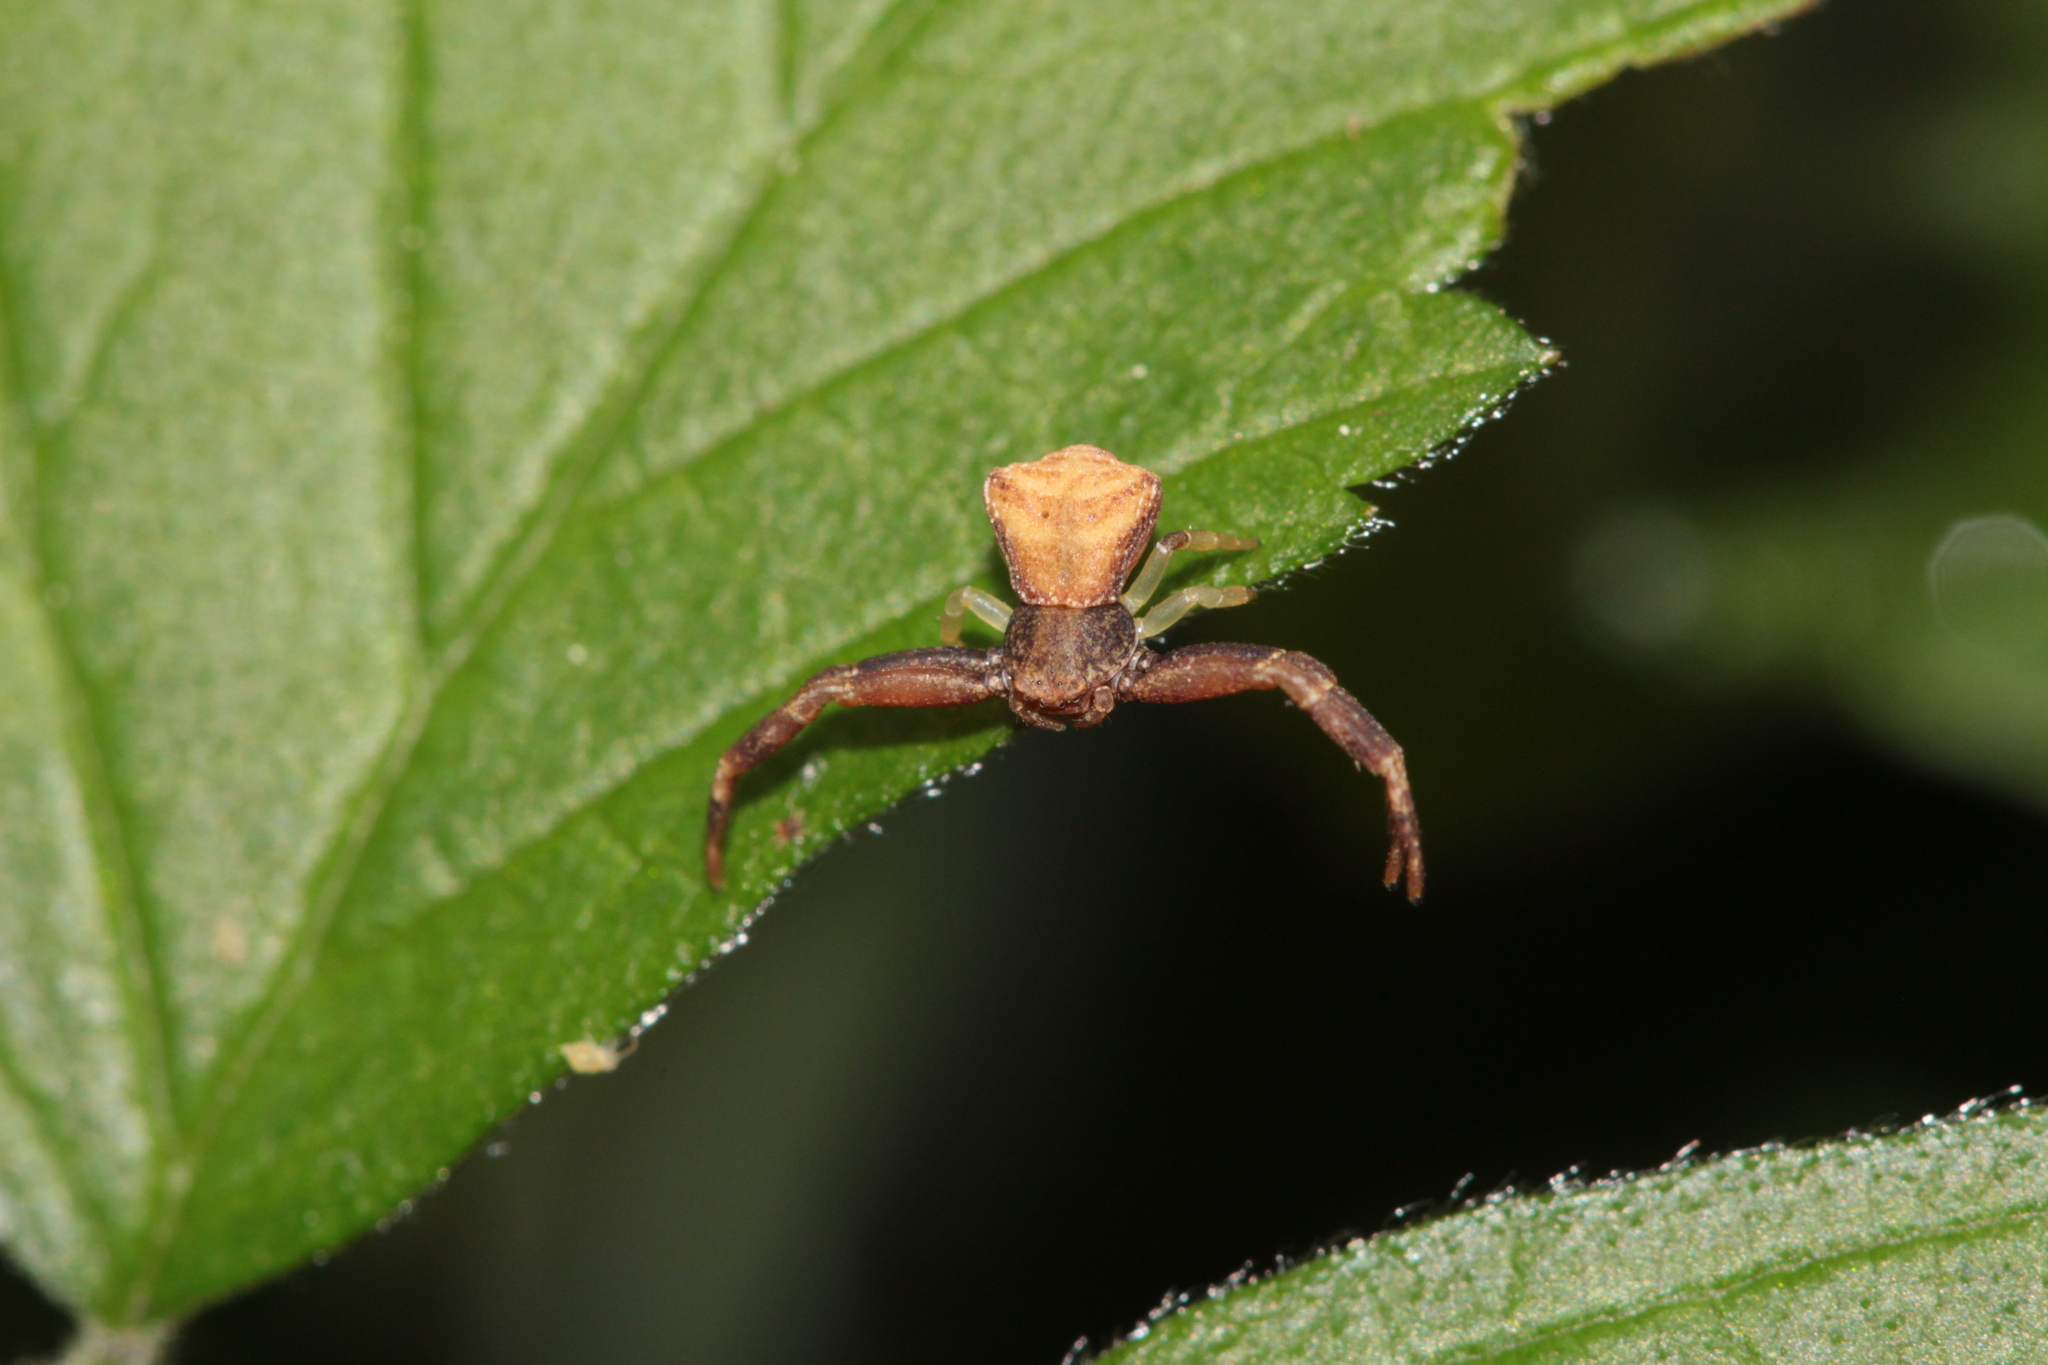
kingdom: Animalia
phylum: Arthropoda
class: Arachnida
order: Araneae
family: Thomisidae
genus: Pistius
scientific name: Pistius truncatus
